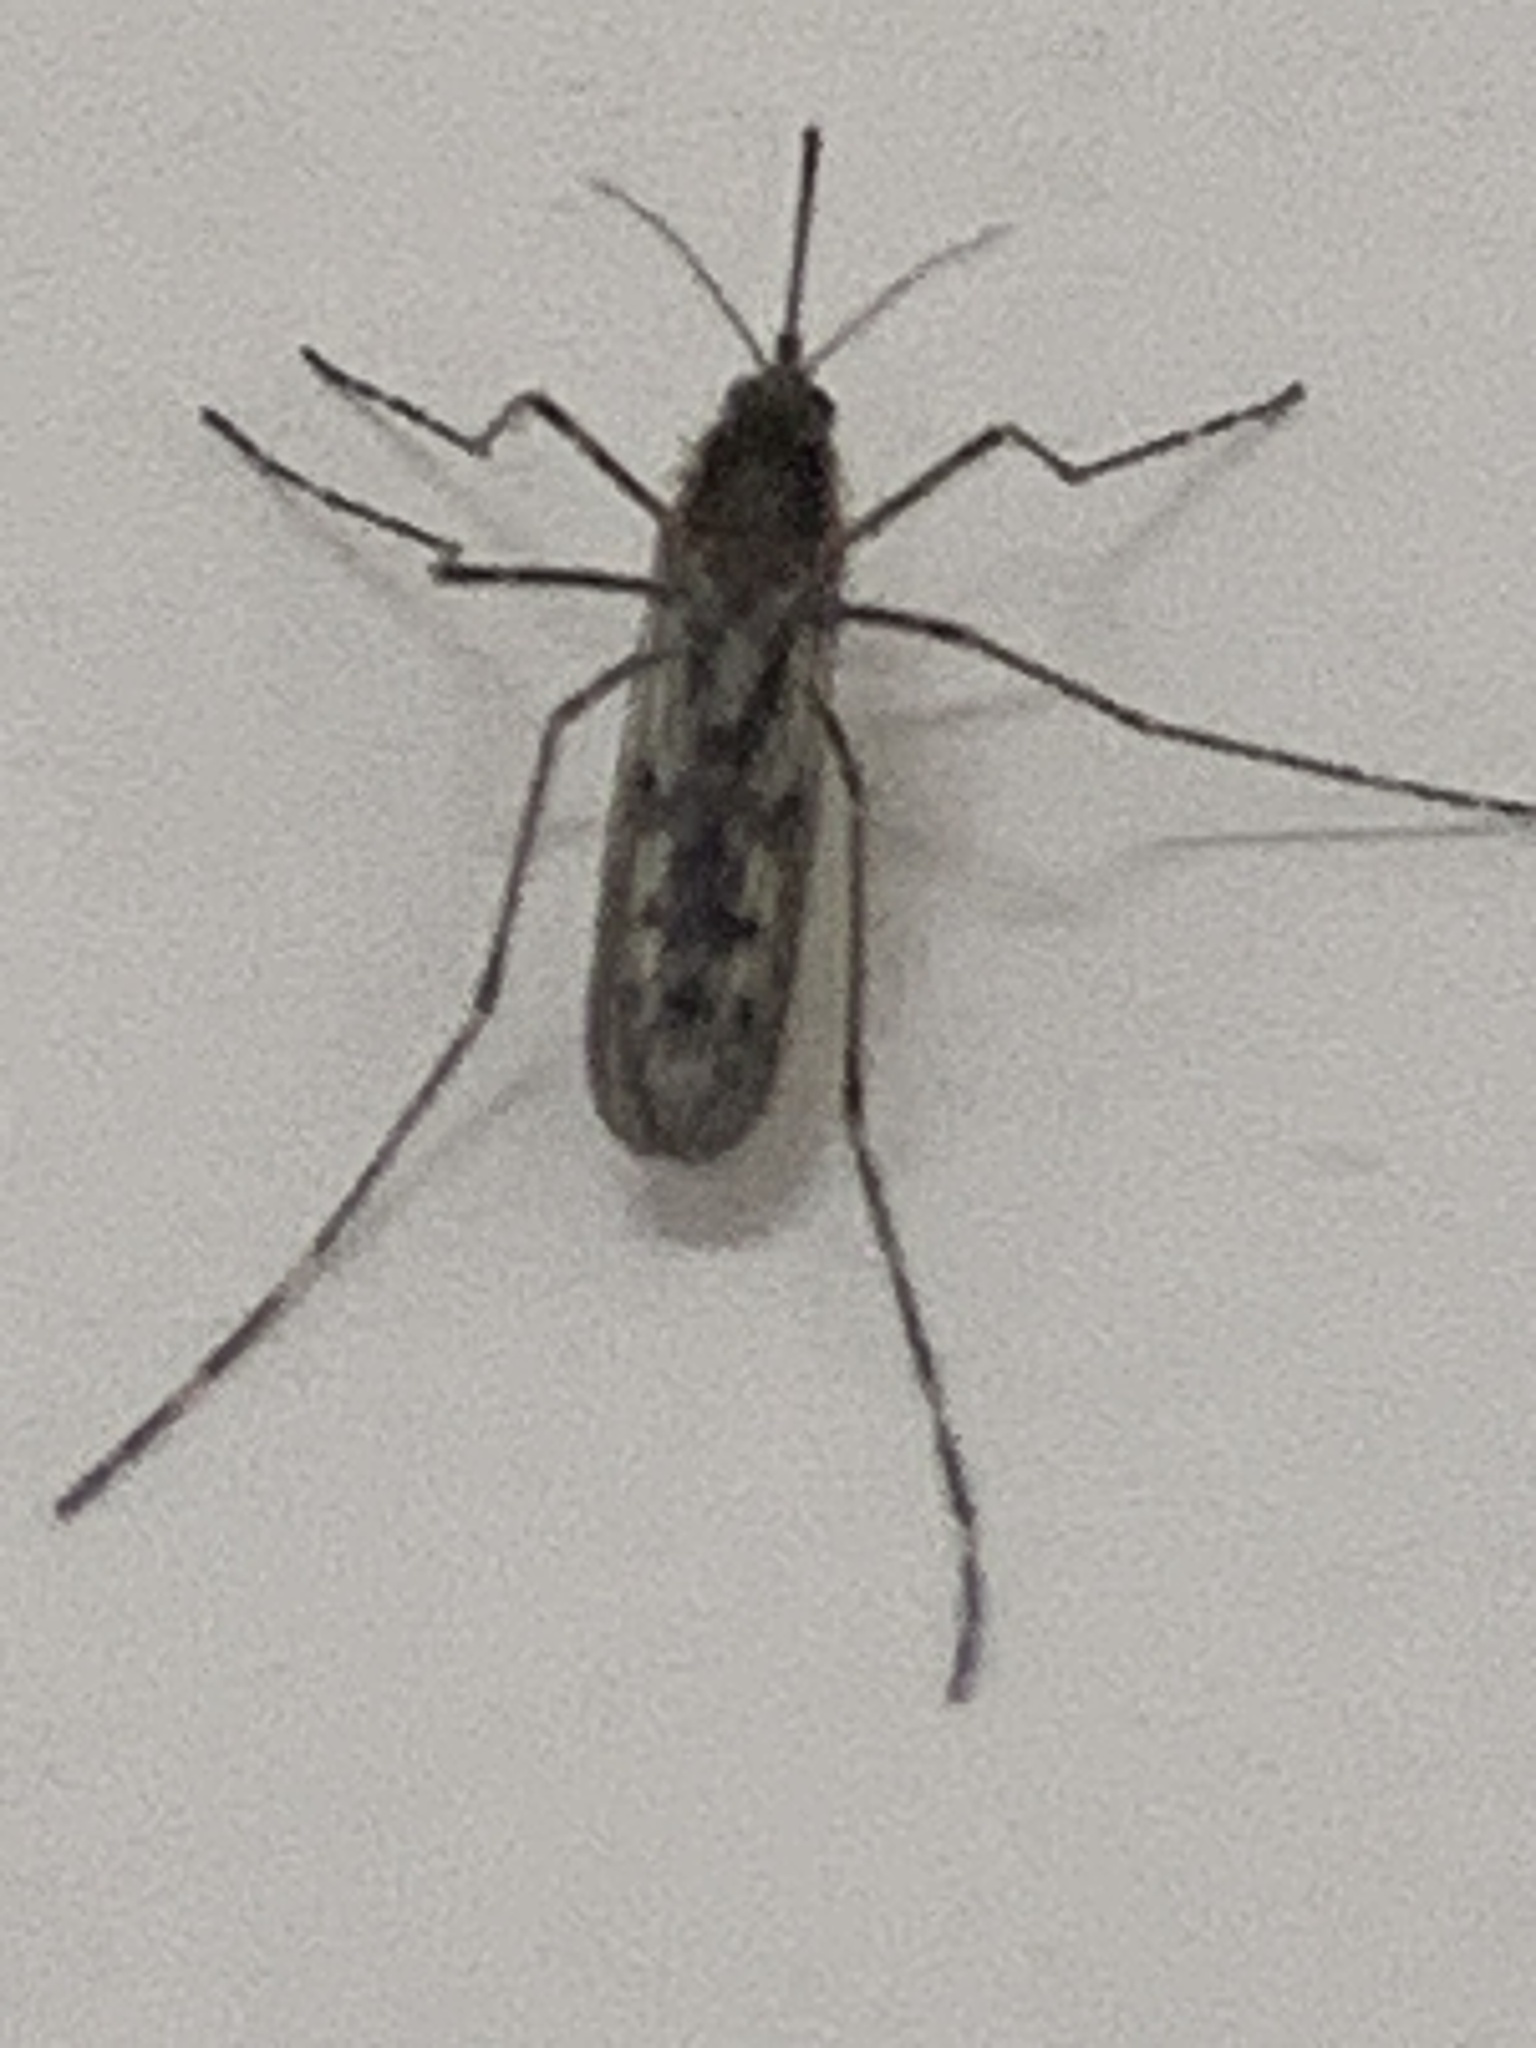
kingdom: Animalia
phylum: Arthropoda
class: Insecta
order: Diptera
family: Culicidae
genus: Culiseta
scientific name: Culiseta annulata
